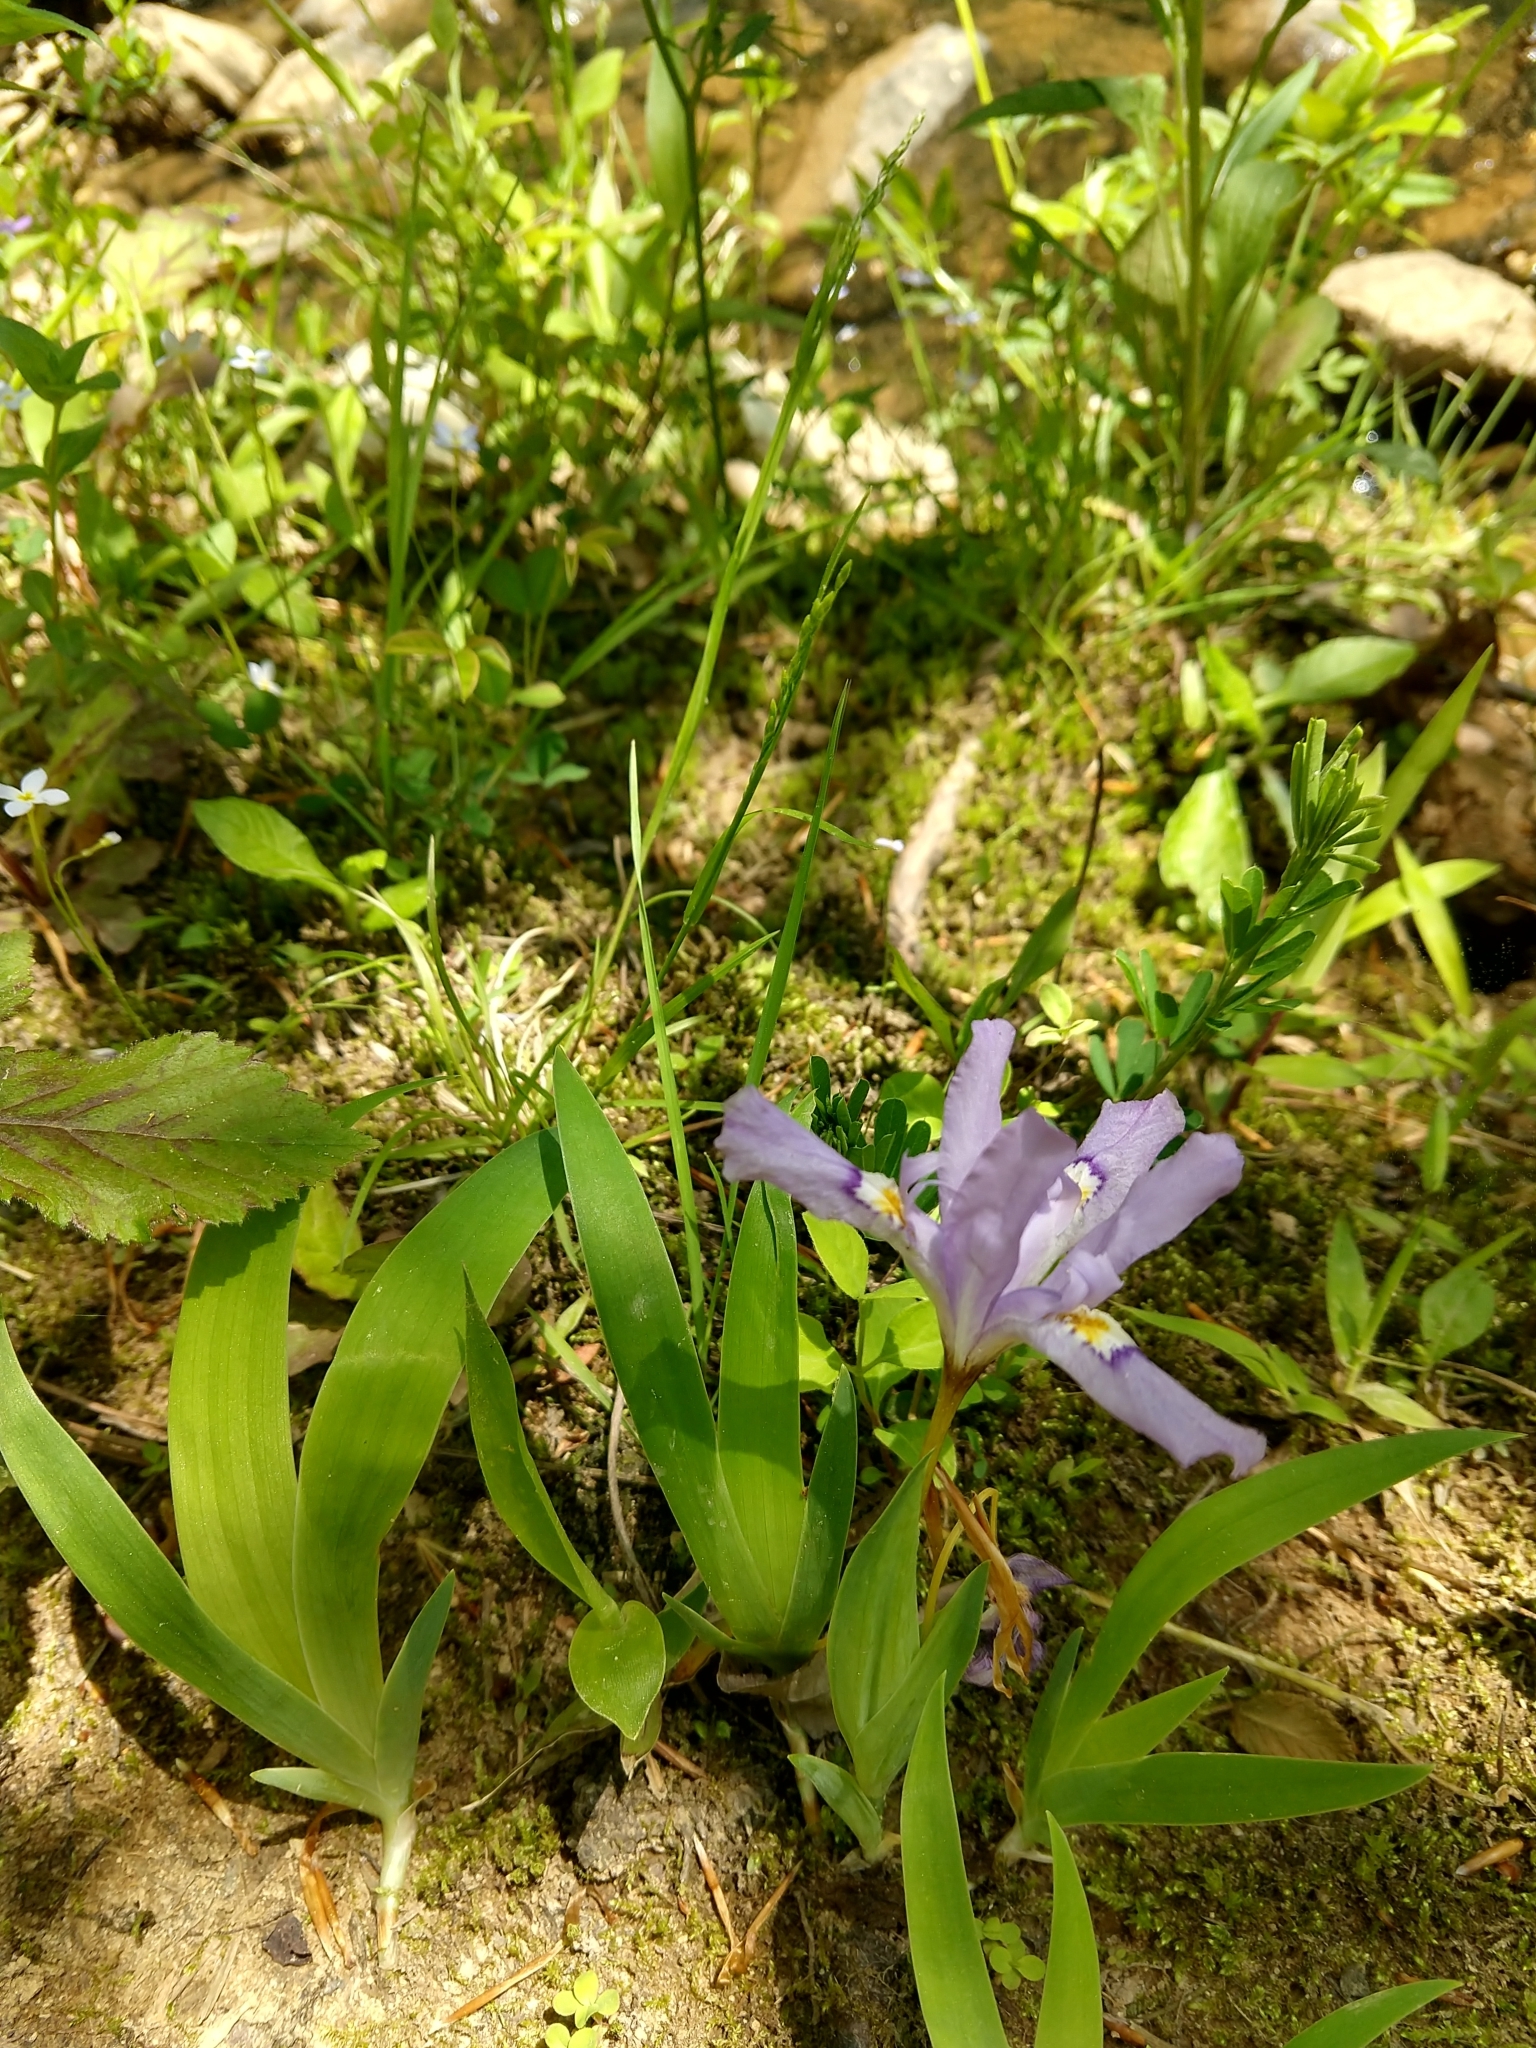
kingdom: Plantae
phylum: Tracheophyta
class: Liliopsida
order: Asparagales
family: Iridaceae
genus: Iris
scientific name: Iris cristata
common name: Crested iris
